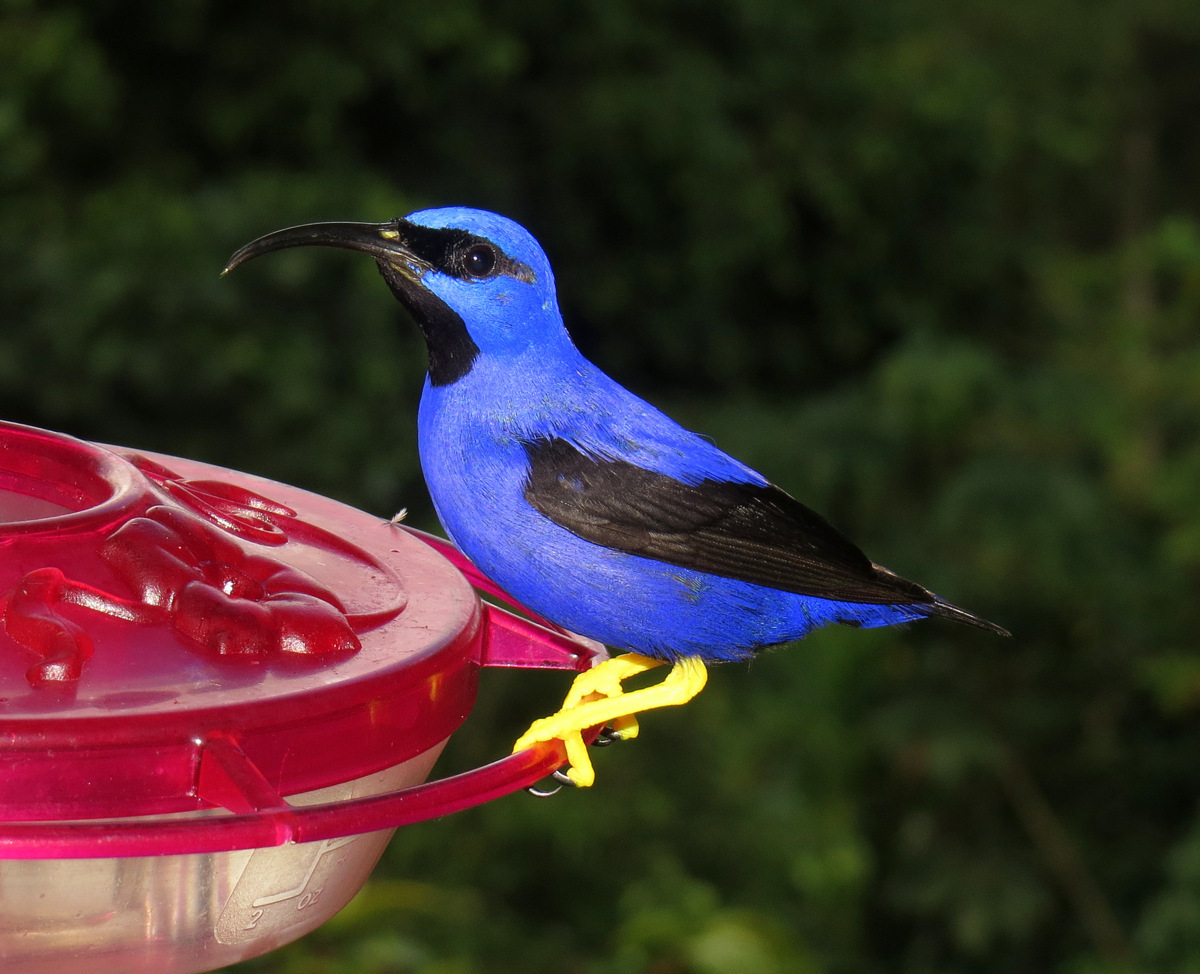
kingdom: Animalia
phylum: Chordata
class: Aves
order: Passeriformes
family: Thraupidae
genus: Cyanerpes
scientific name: Cyanerpes caeruleus
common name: Purple honeycreeper
